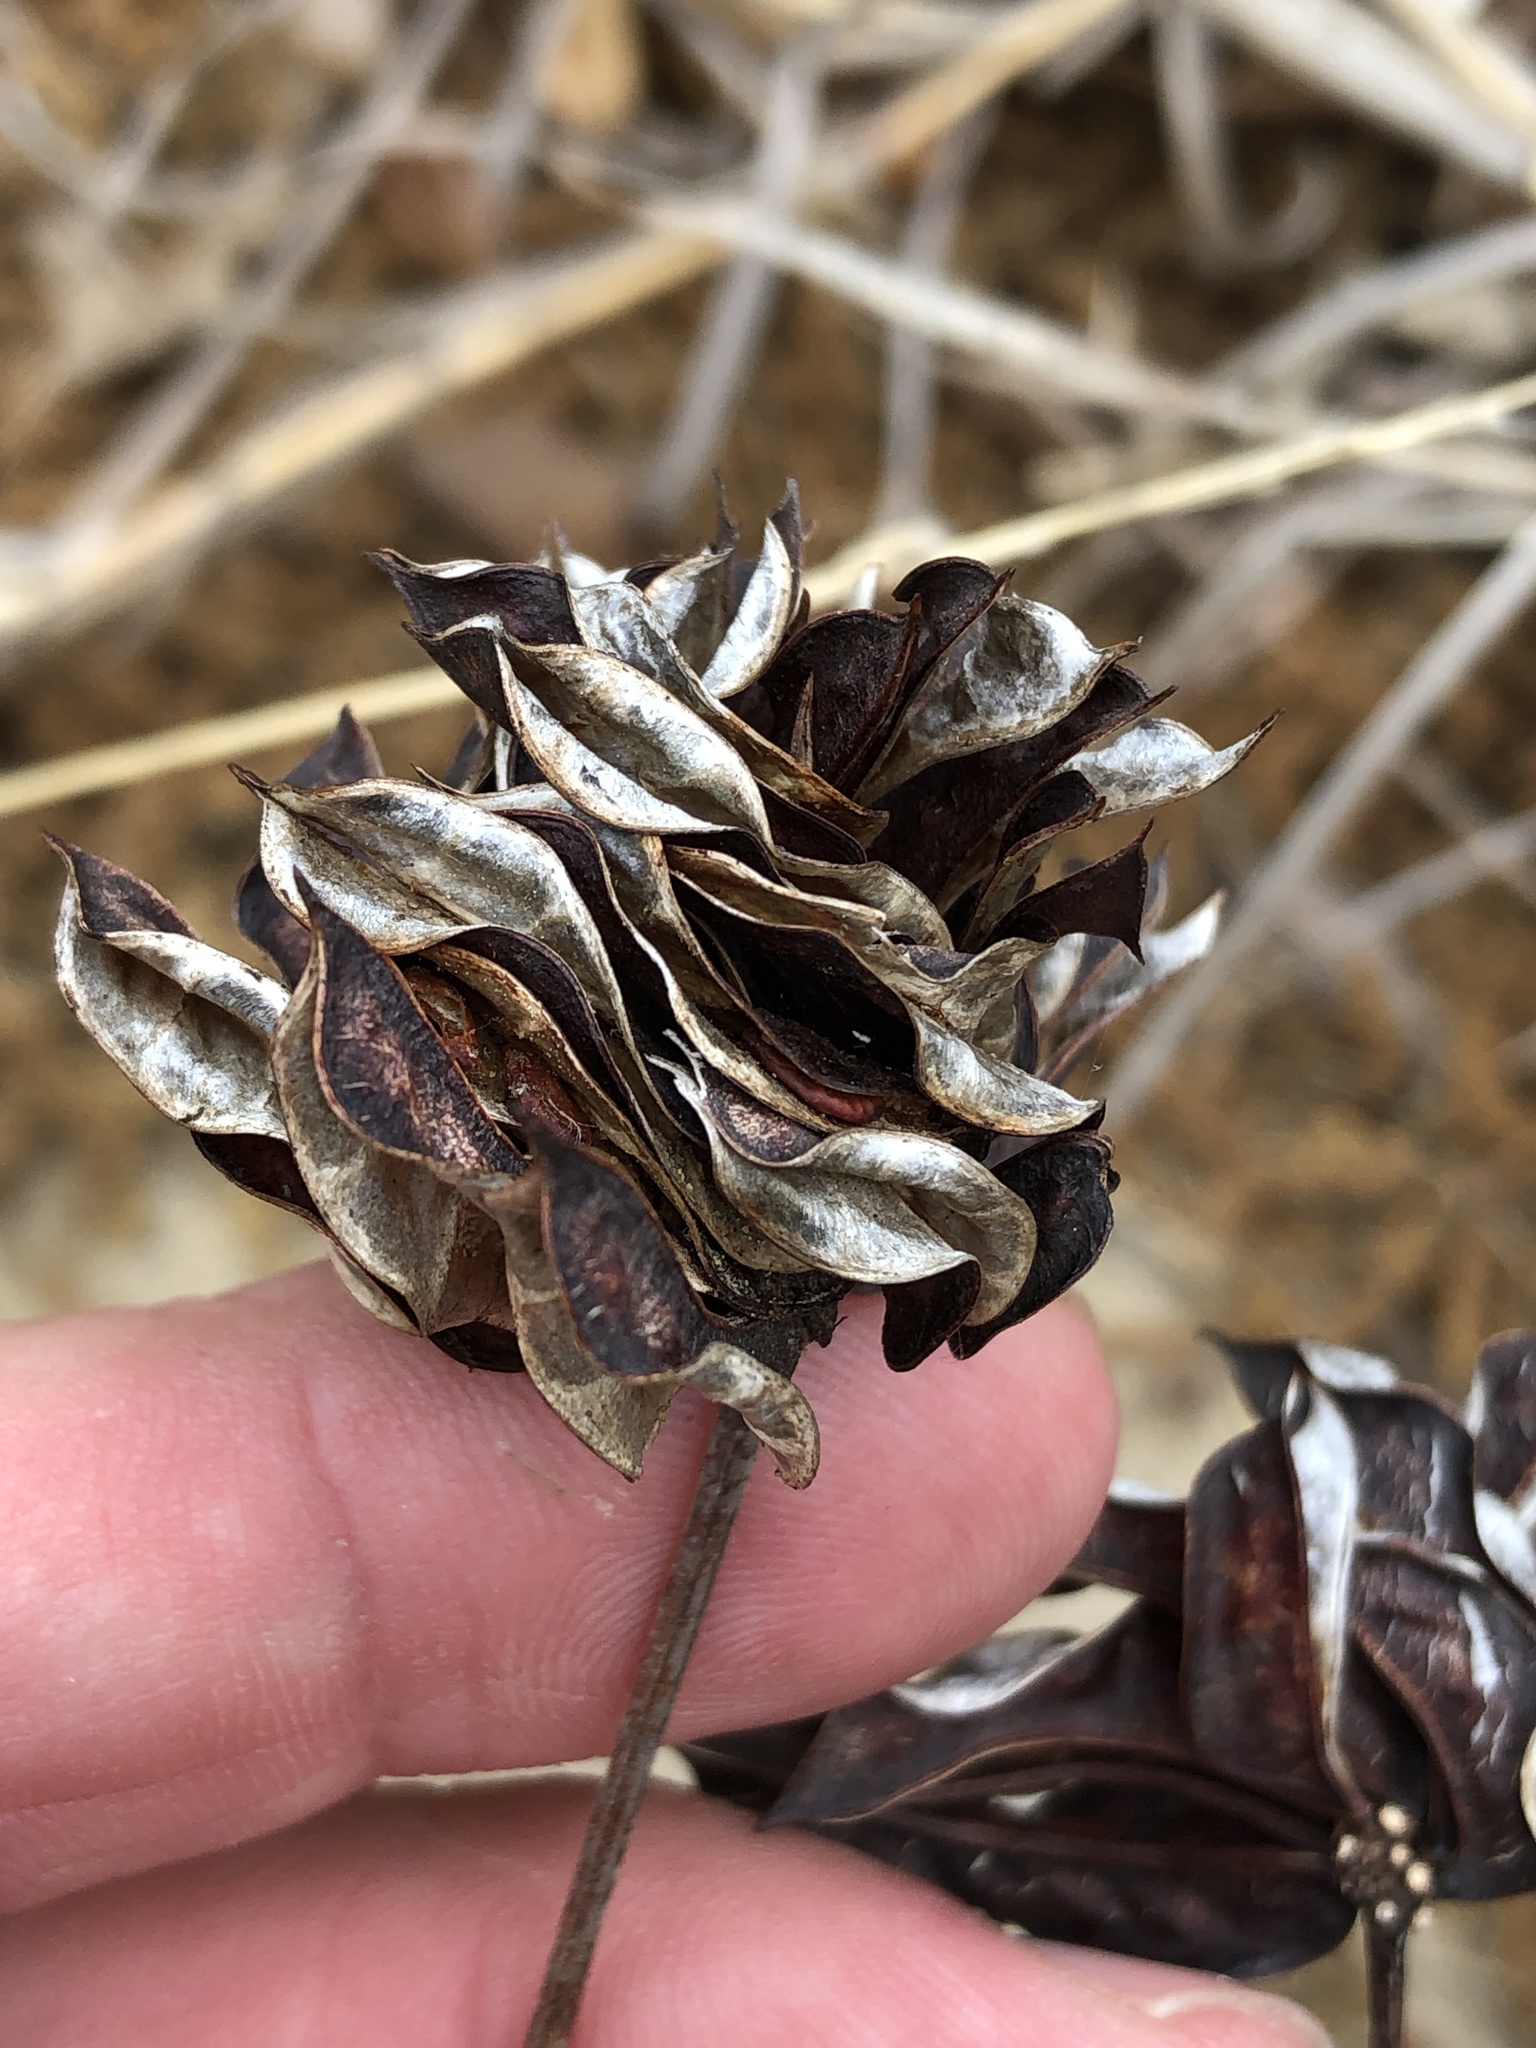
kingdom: Plantae
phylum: Tracheophyta
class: Magnoliopsida
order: Fabales
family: Fabaceae
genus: Desmanthus
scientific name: Desmanthus illinoensis
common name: Illinois bundle-flower
